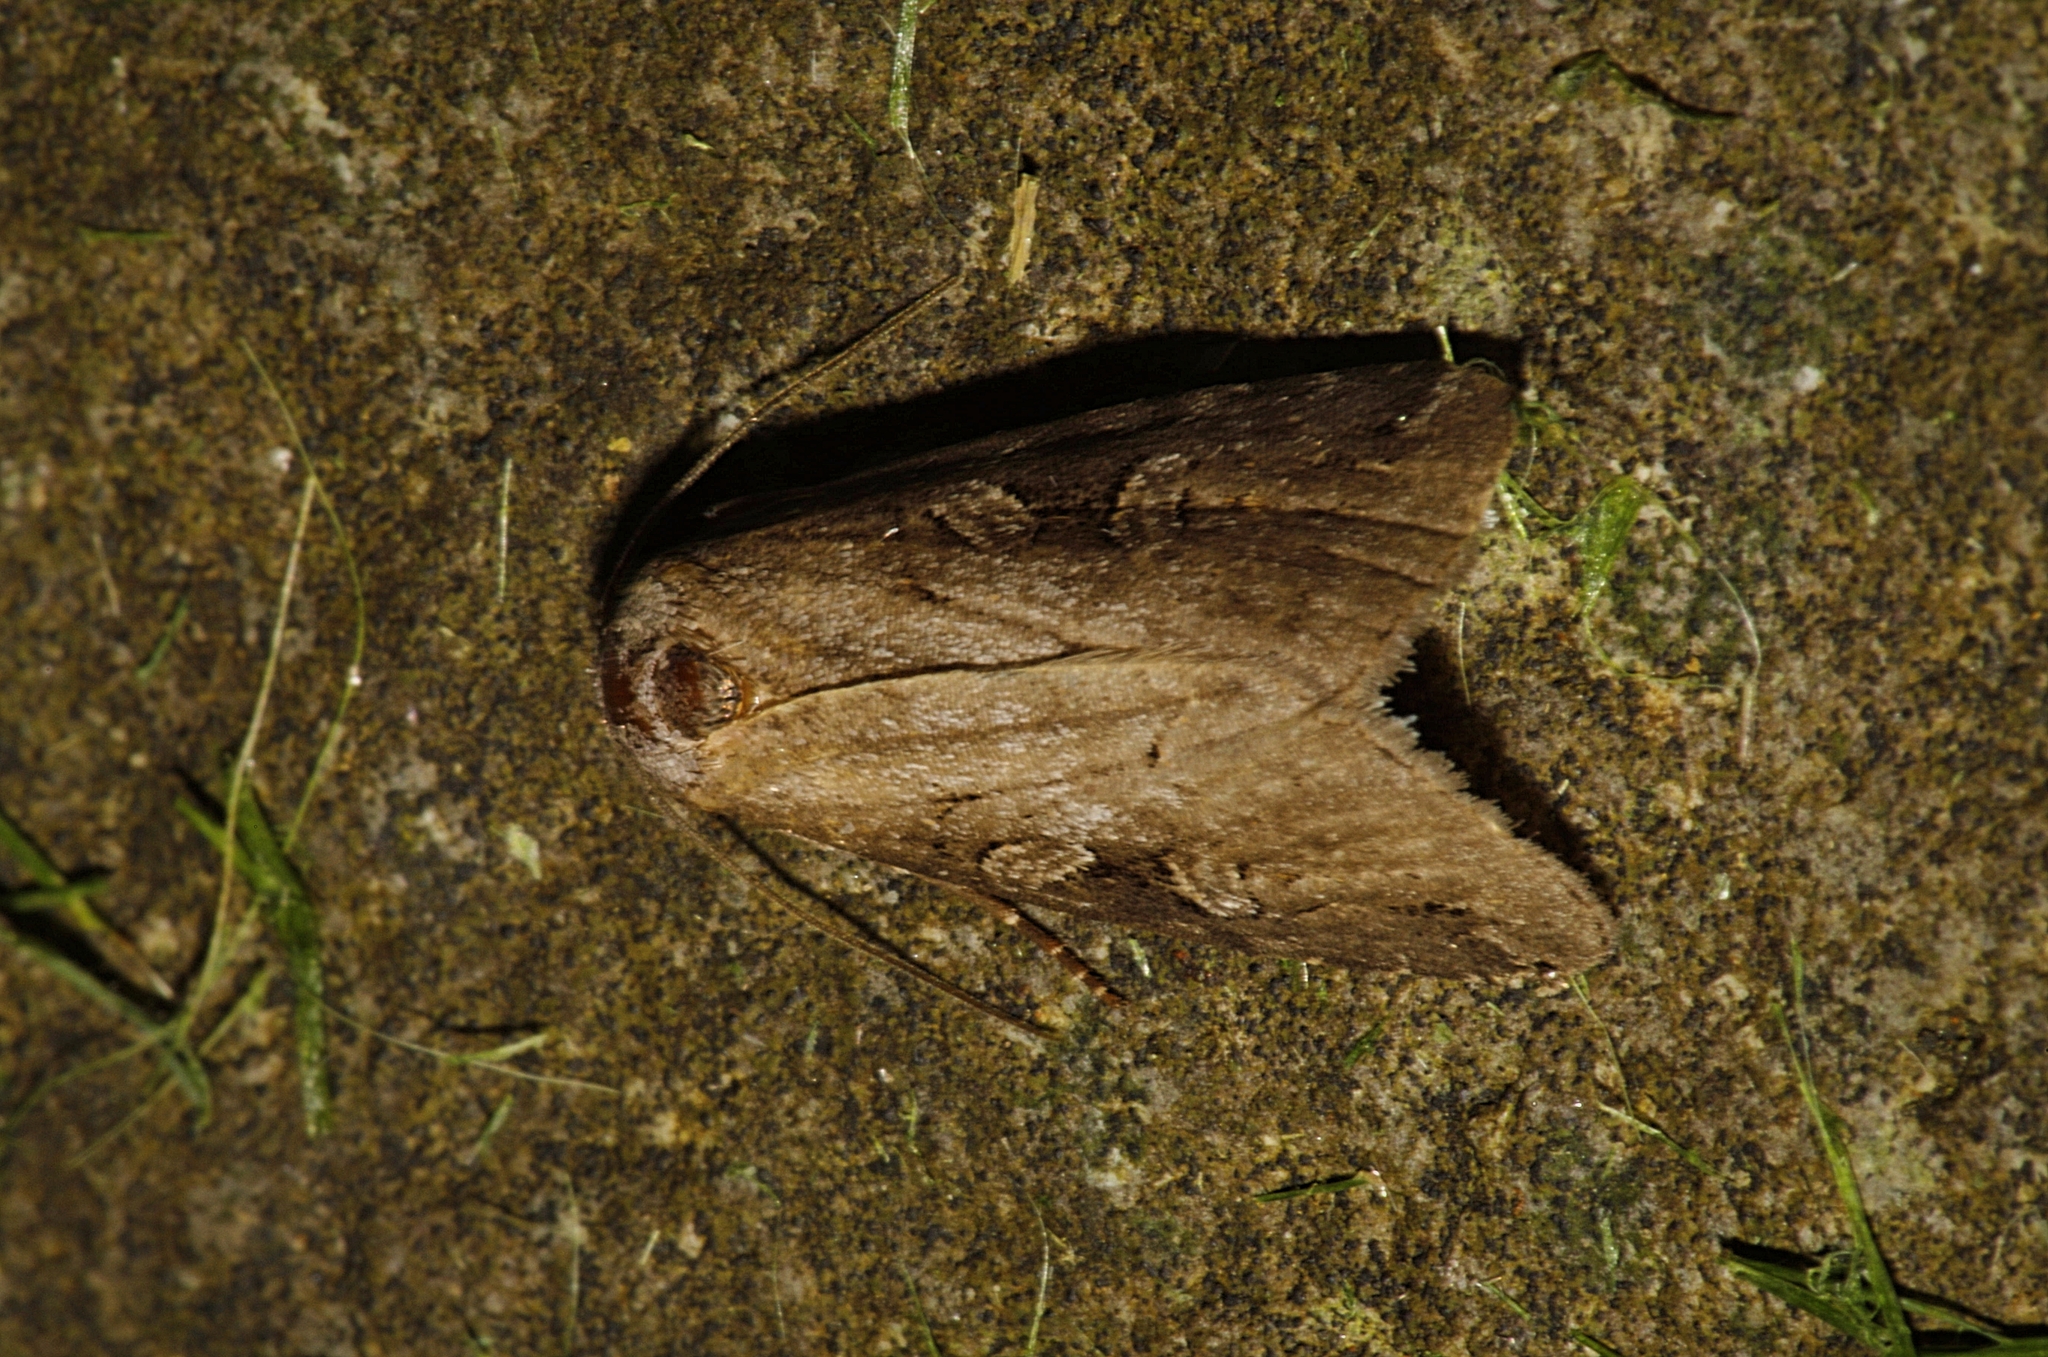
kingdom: Animalia
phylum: Arthropoda
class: Insecta
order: Lepidoptera
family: Noctuidae
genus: Stilbia
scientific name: Stilbia anomala
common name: Anomalous
